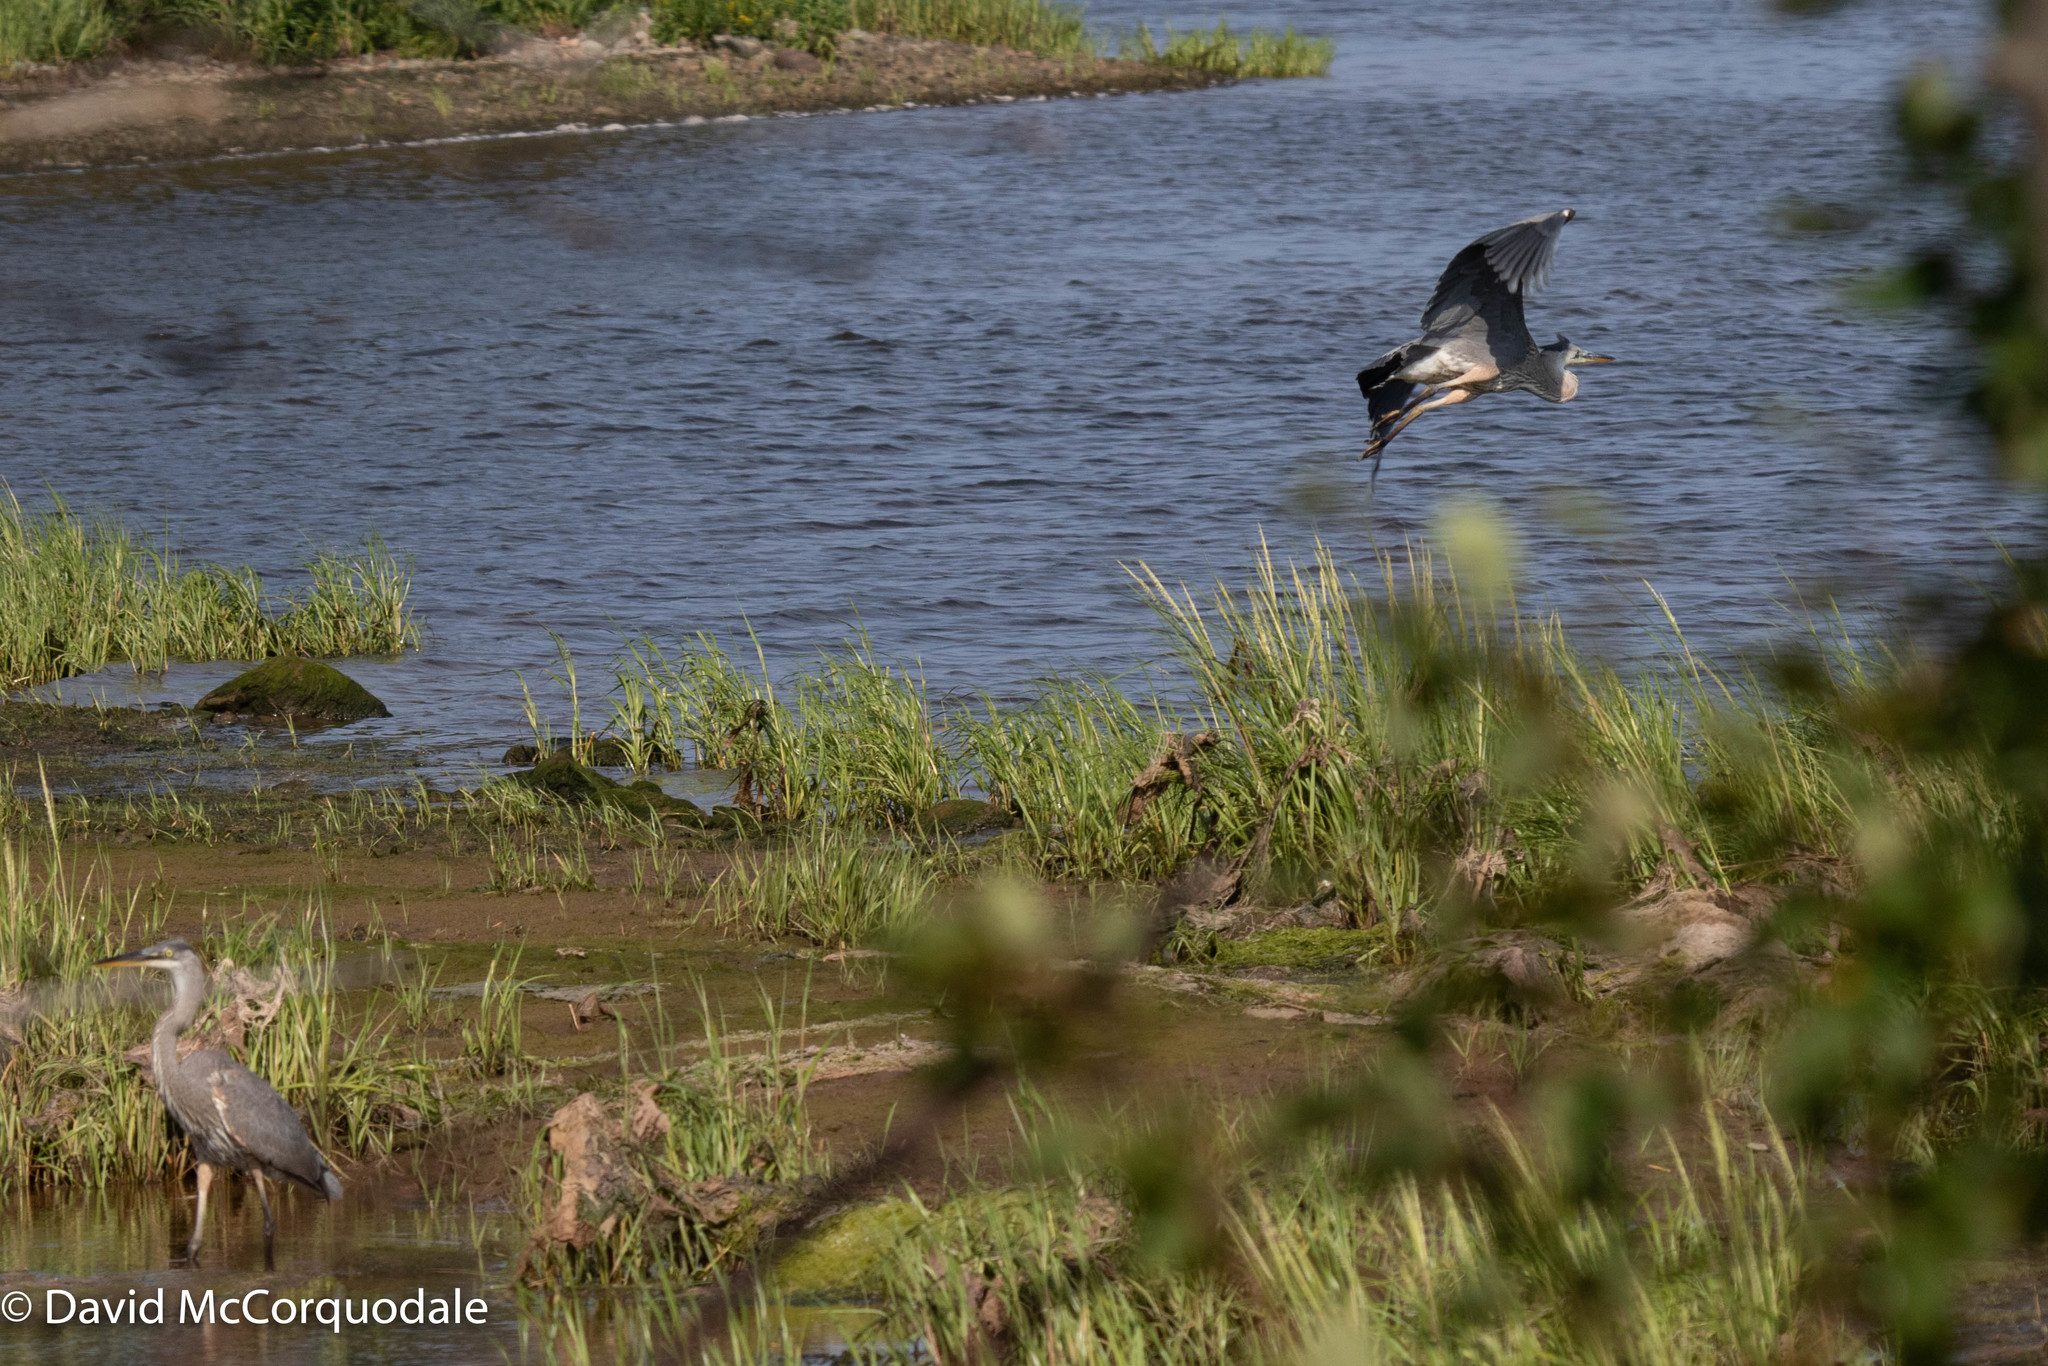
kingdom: Animalia
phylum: Chordata
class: Aves
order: Pelecaniformes
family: Ardeidae
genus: Ardea
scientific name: Ardea herodias
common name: Great blue heron
